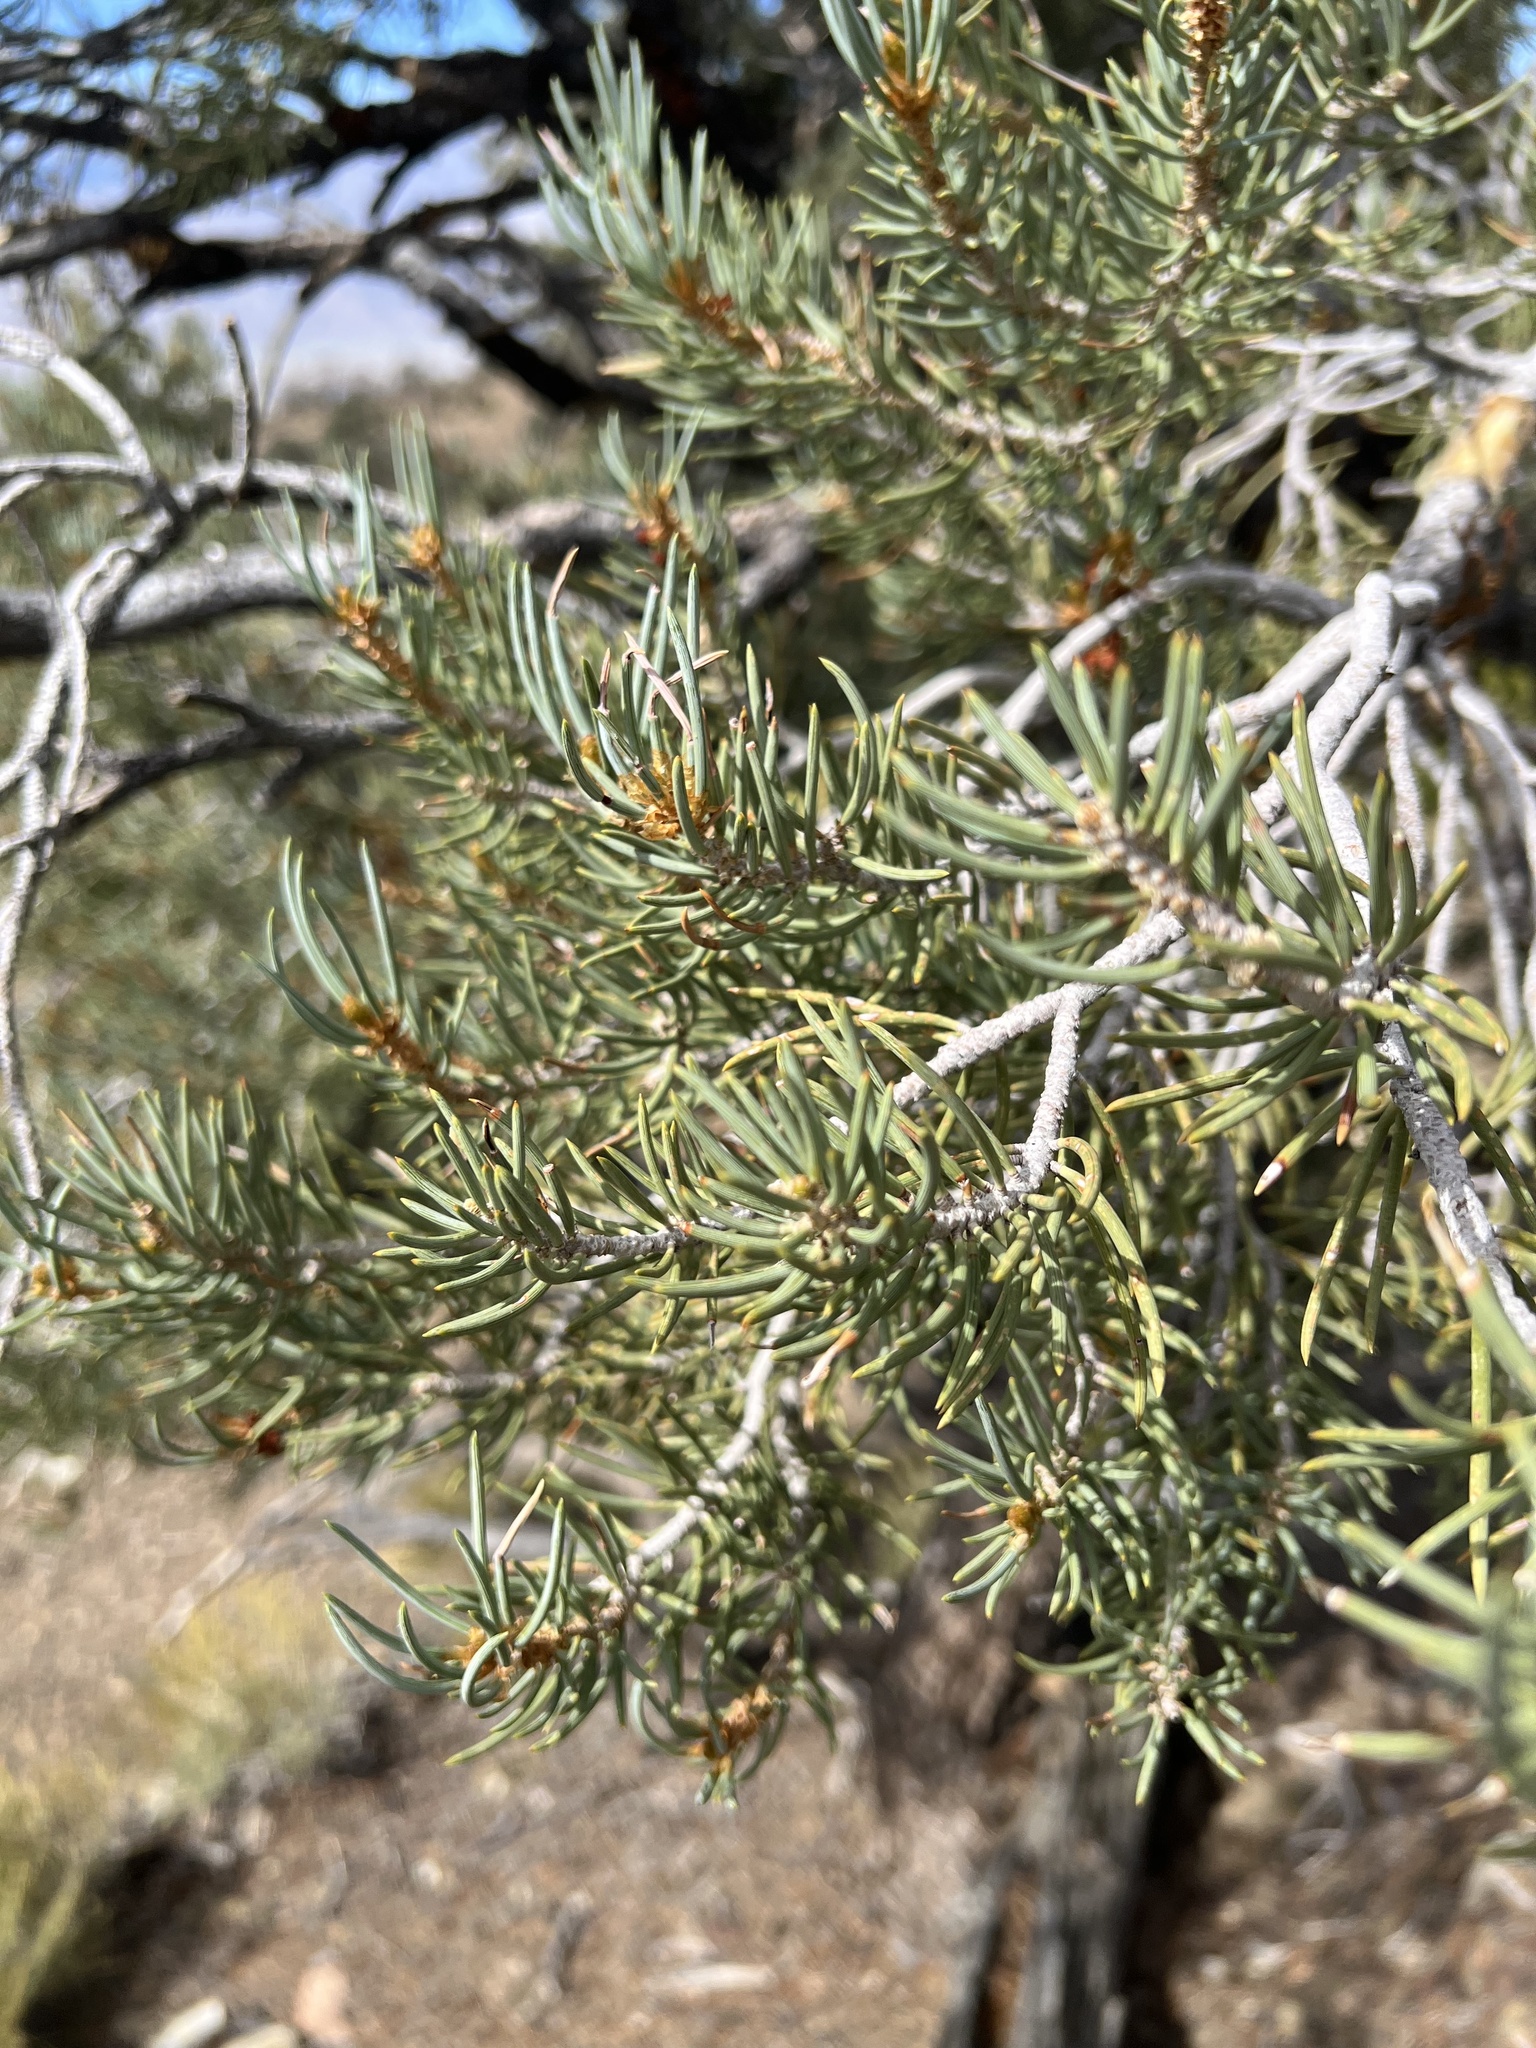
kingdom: Plantae
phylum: Tracheophyta
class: Pinopsida
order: Pinales
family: Pinaceae
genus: Pinus
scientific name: Pinus monophylla
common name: One-leaved nut pine
